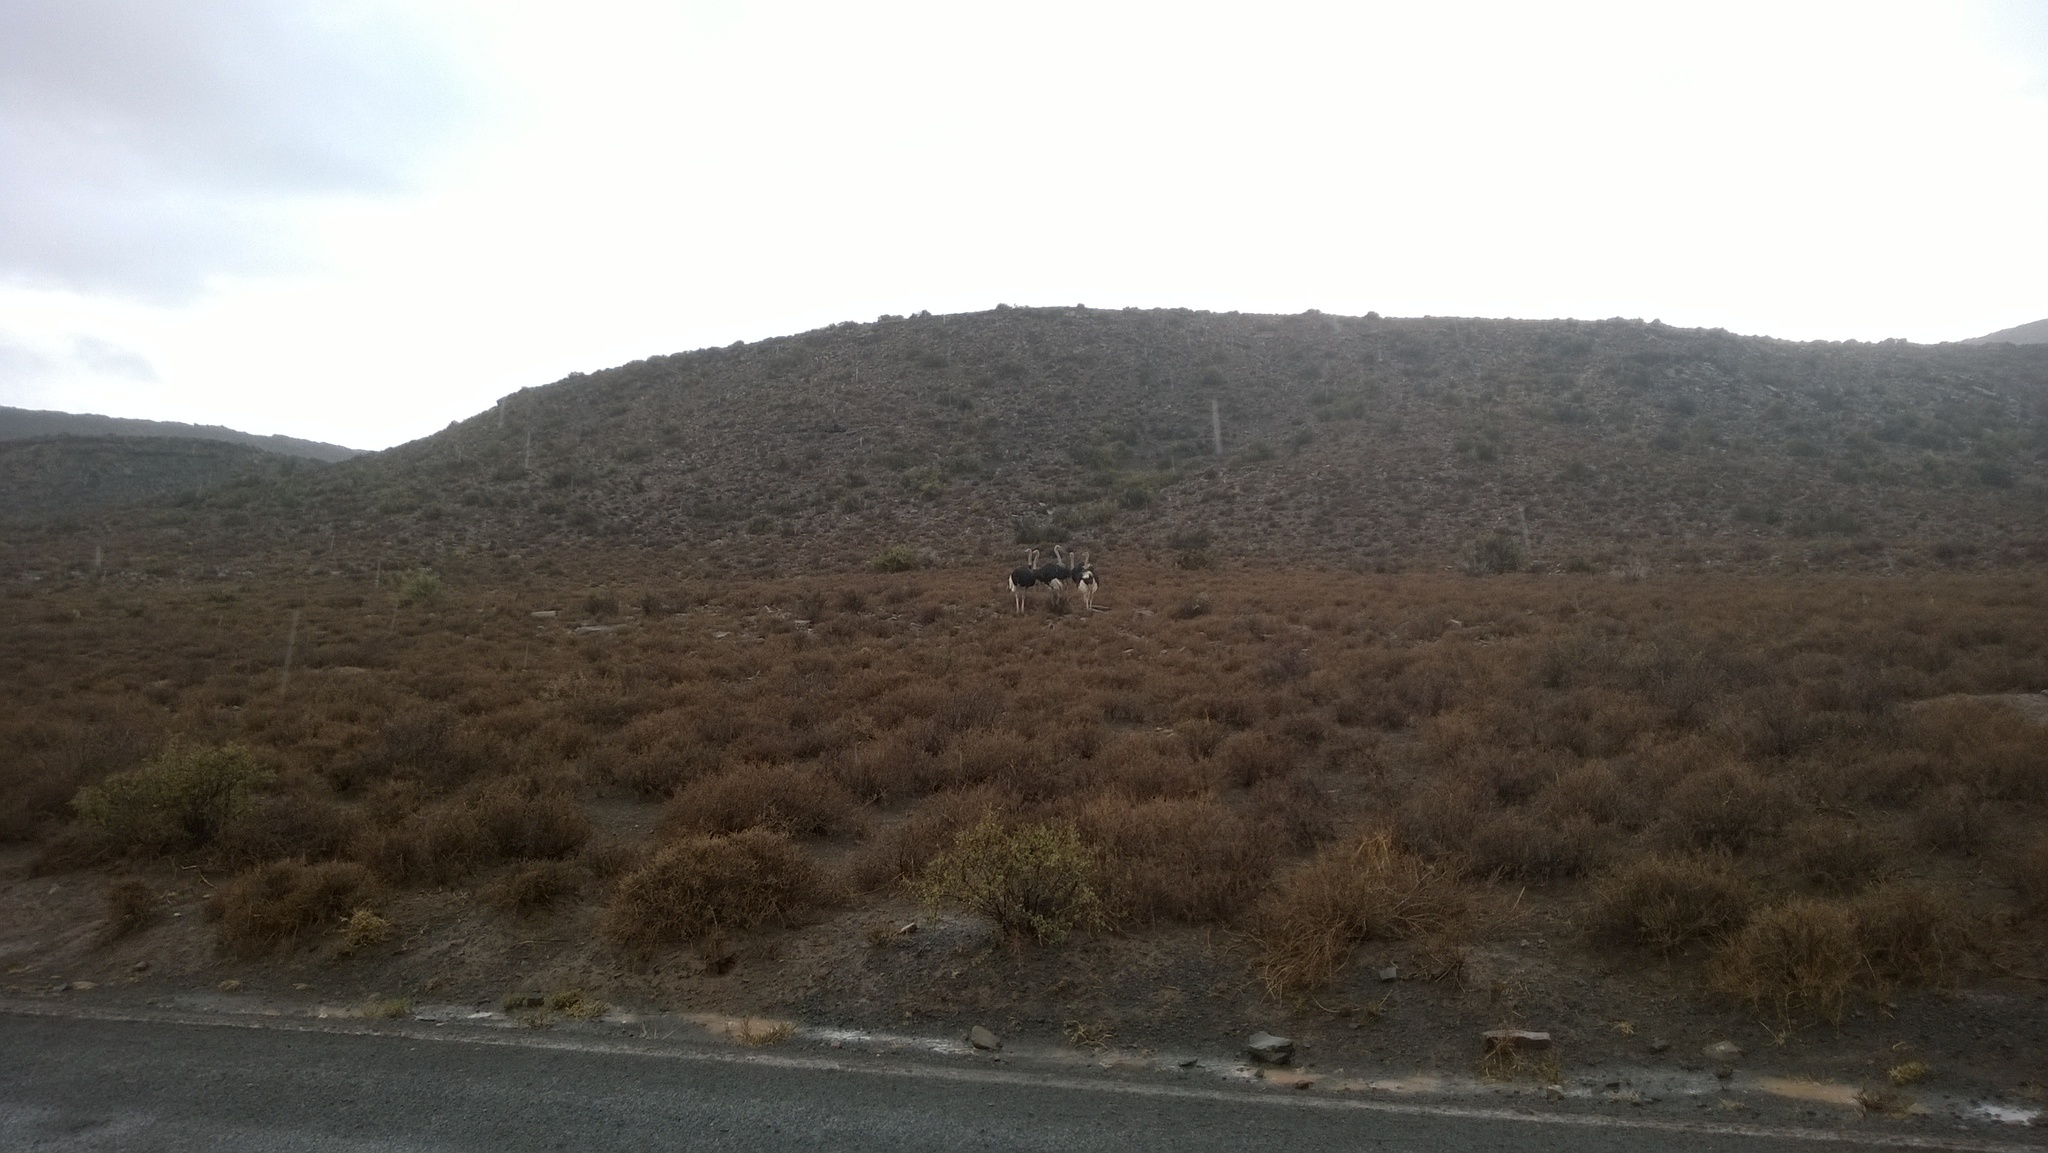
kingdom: Animalia
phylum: Chordata
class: Aves
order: Struthioniformes
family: Struthionidae
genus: Struthio
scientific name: Struthio camelus
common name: Common ostrich
